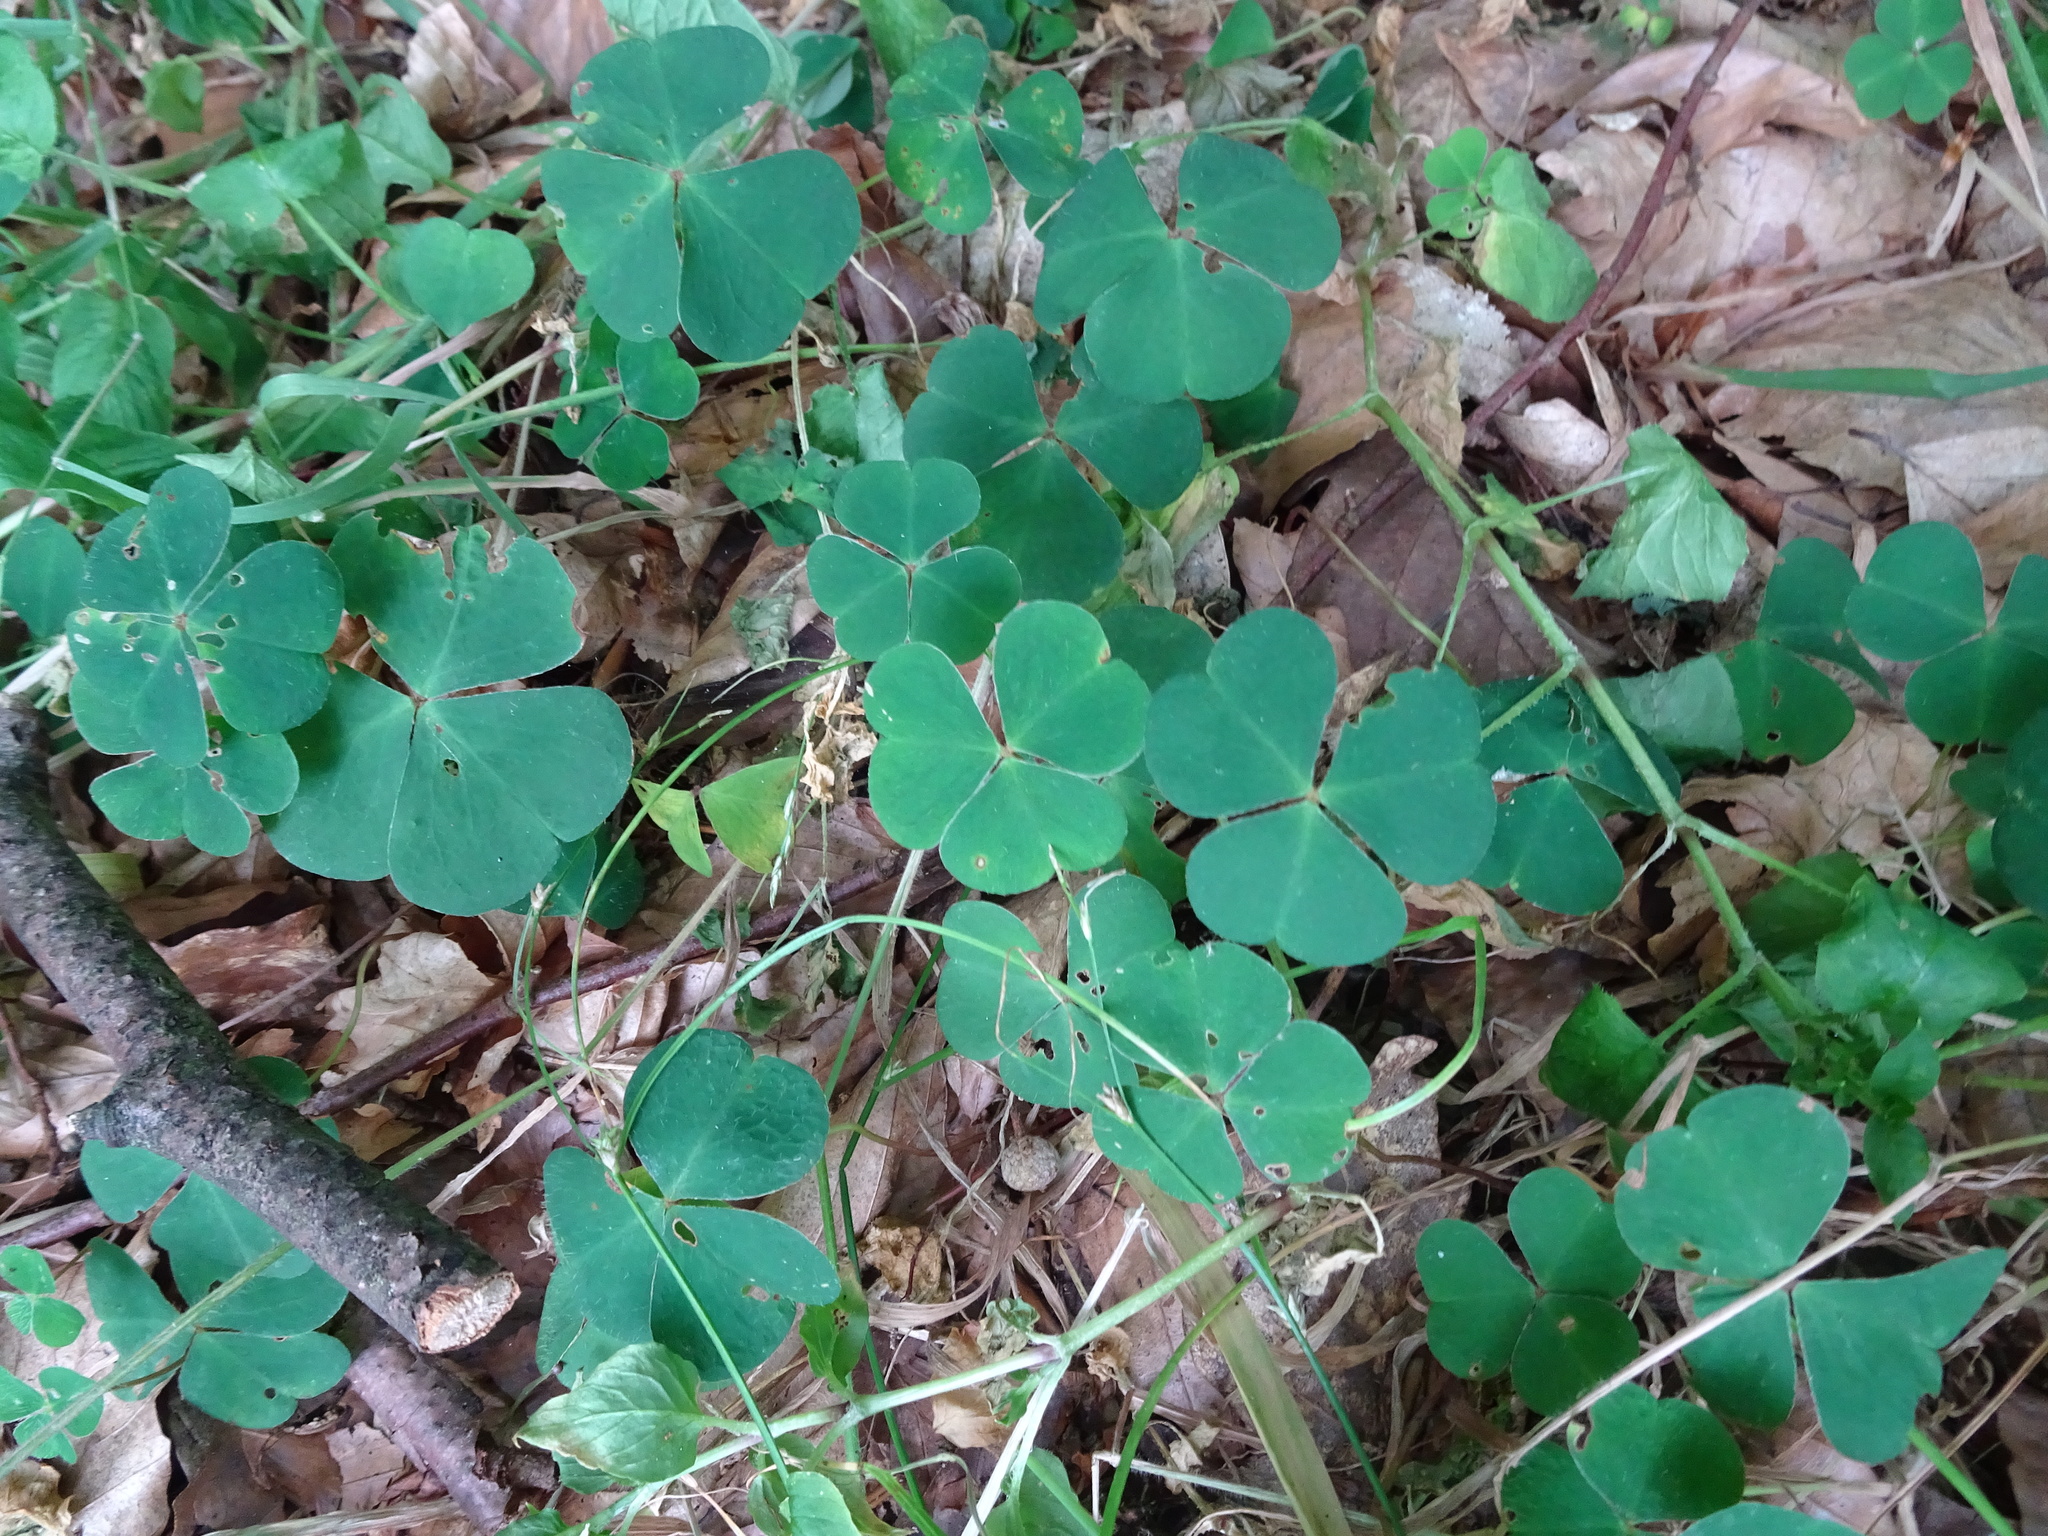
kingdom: Plantae
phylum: Tracheophyta
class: Magnoliopsida
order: Oxalidales
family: Oxalidaceae
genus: Oxalis
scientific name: Oxalis acetosella
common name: Wood-sorrel
